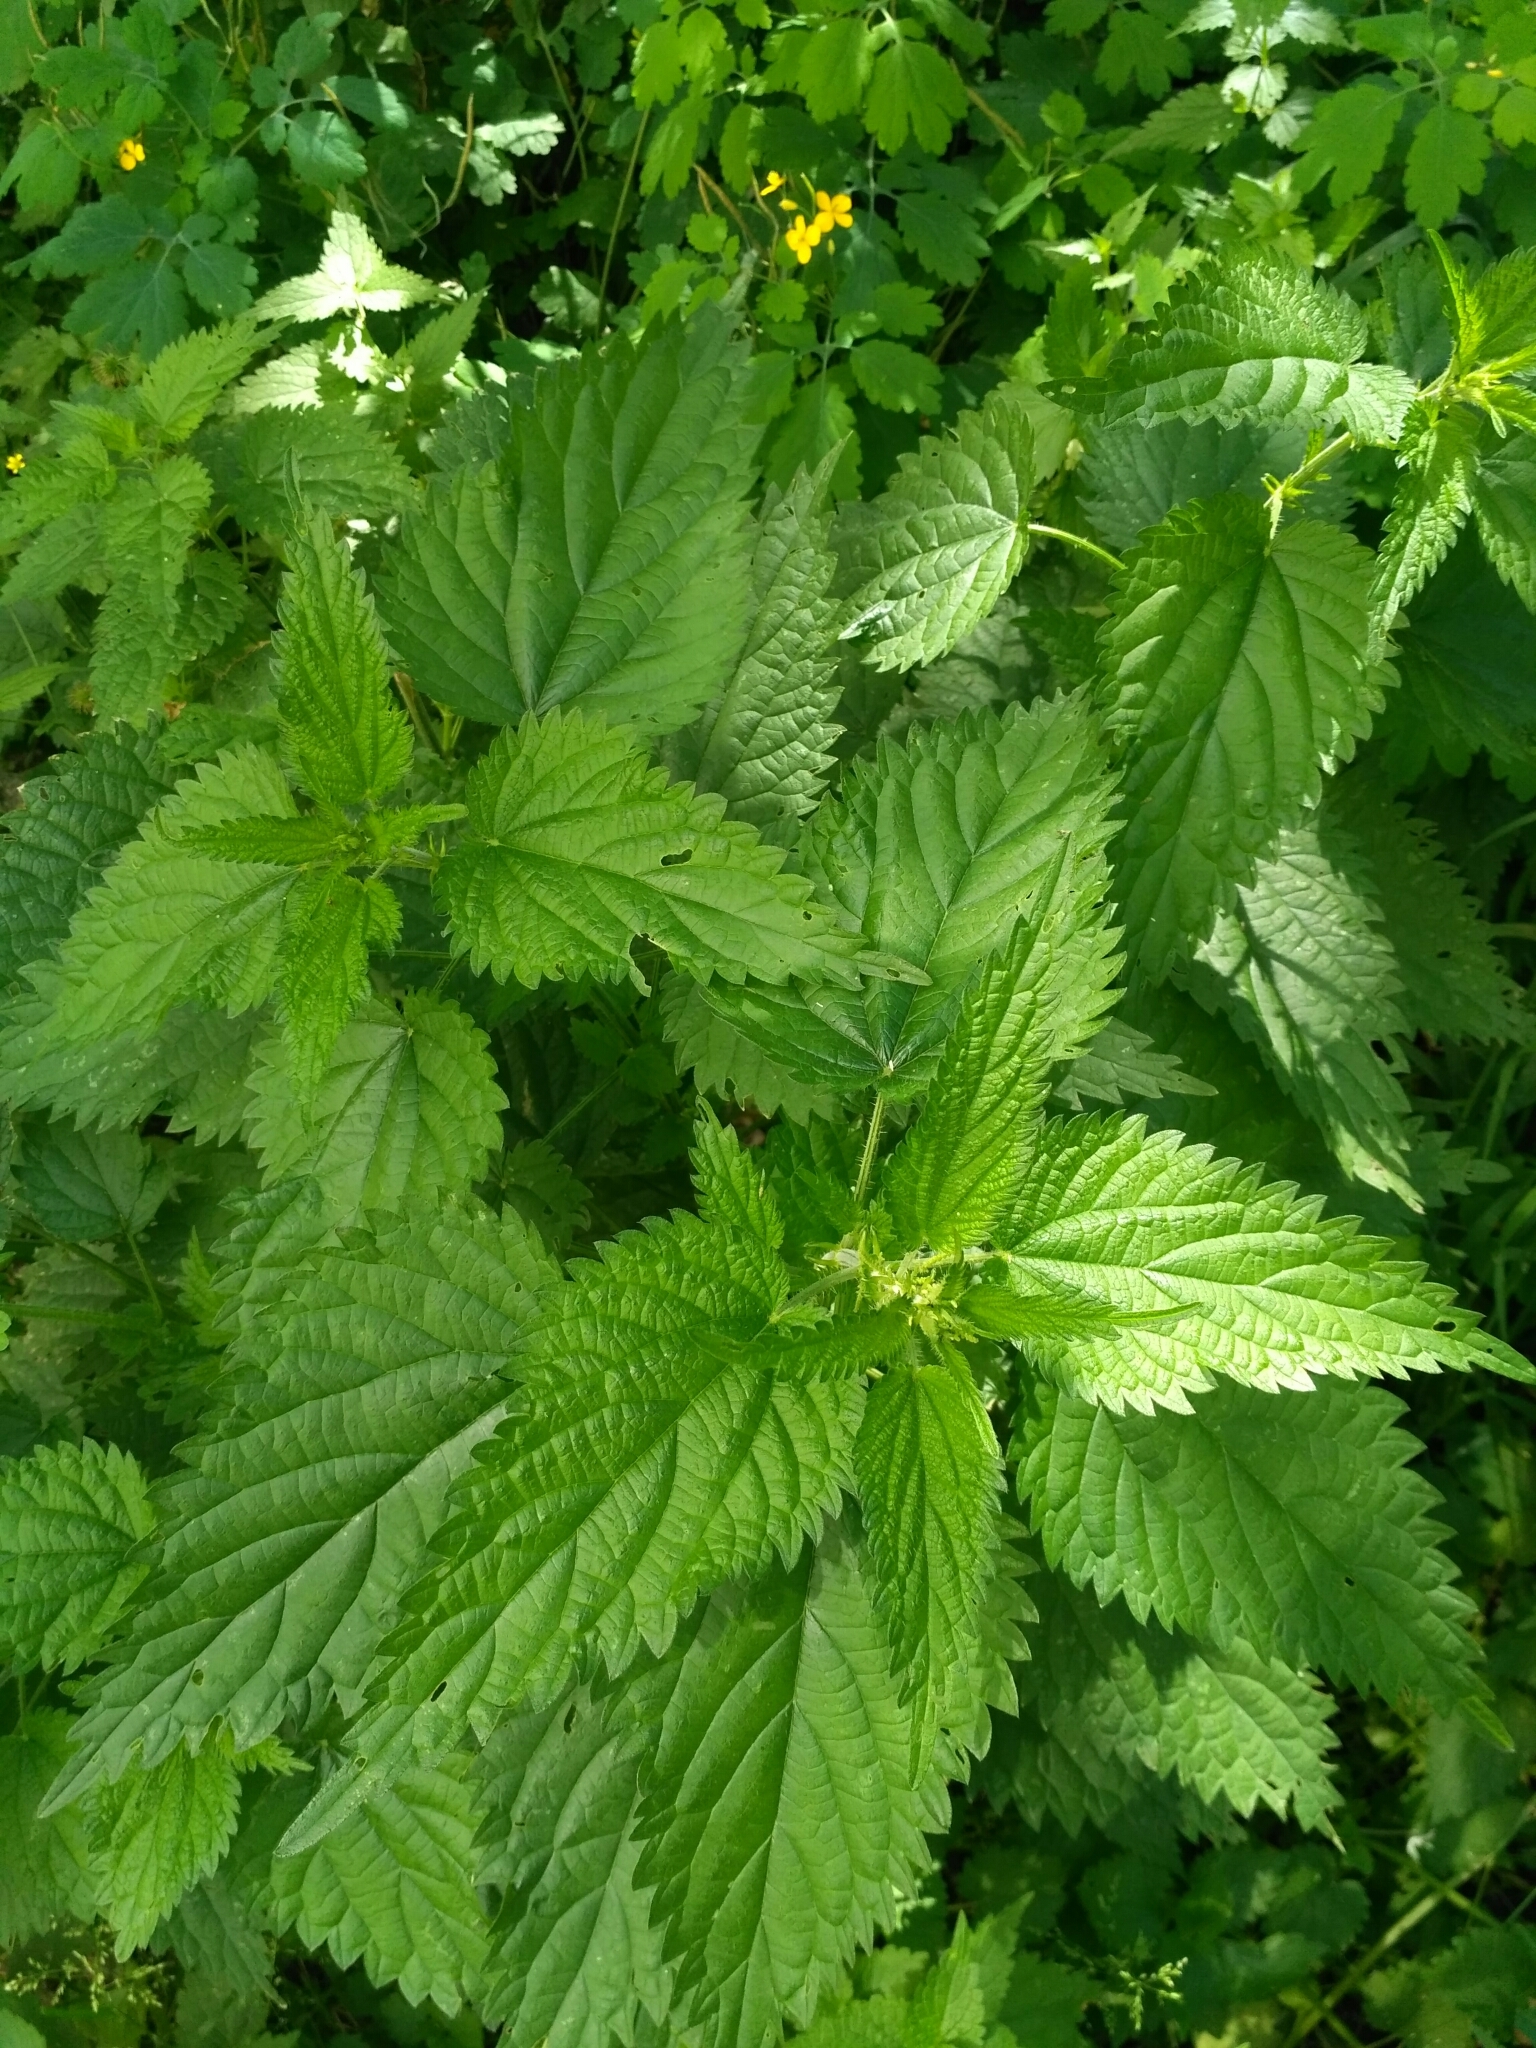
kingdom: Plantae
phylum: Tracheophyta
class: Magnoliopsida
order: Rosales
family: Urticaceae
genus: Urtica
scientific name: Urtica dioica
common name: Common nettle
